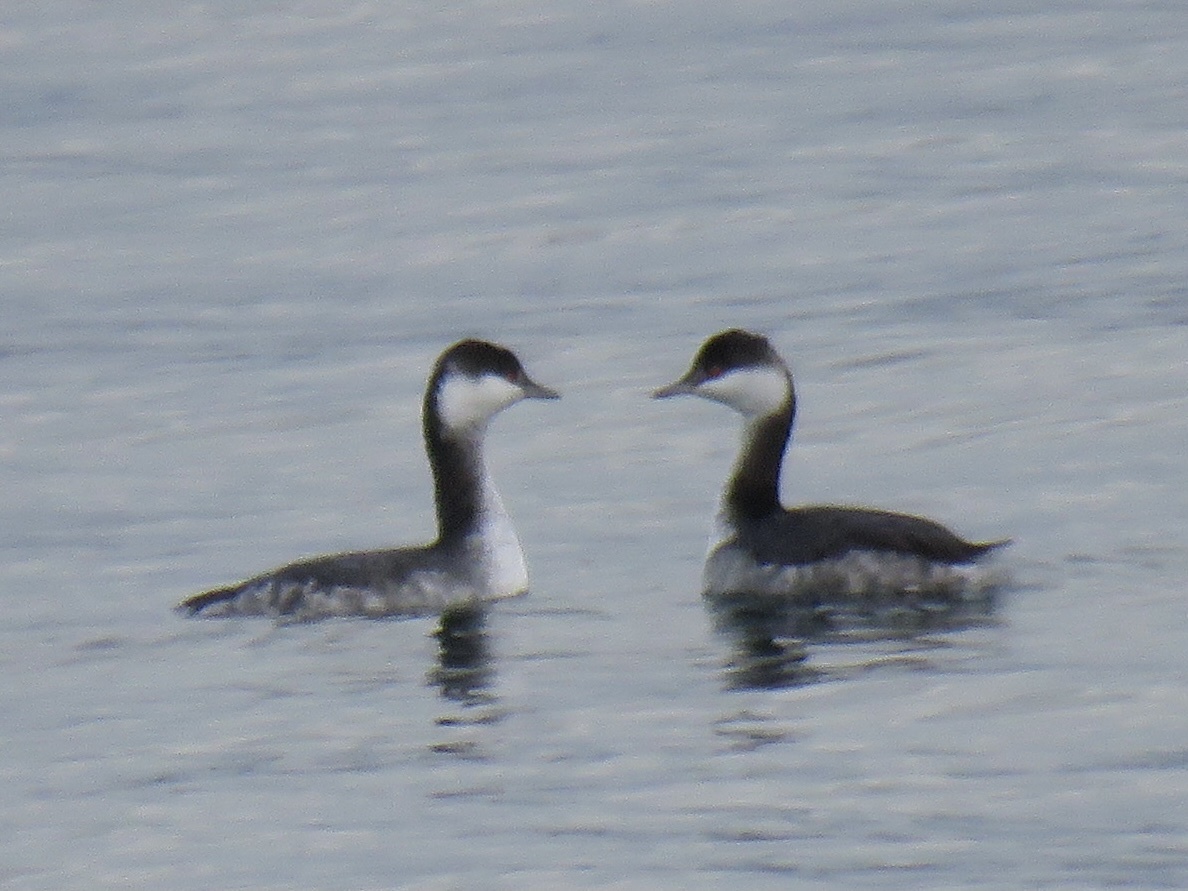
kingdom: Animalia
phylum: Chordata
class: Aves
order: Podicipediformes
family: Podicipedidae
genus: Podiceps
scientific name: Podiceps auritus
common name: Horned grebe
